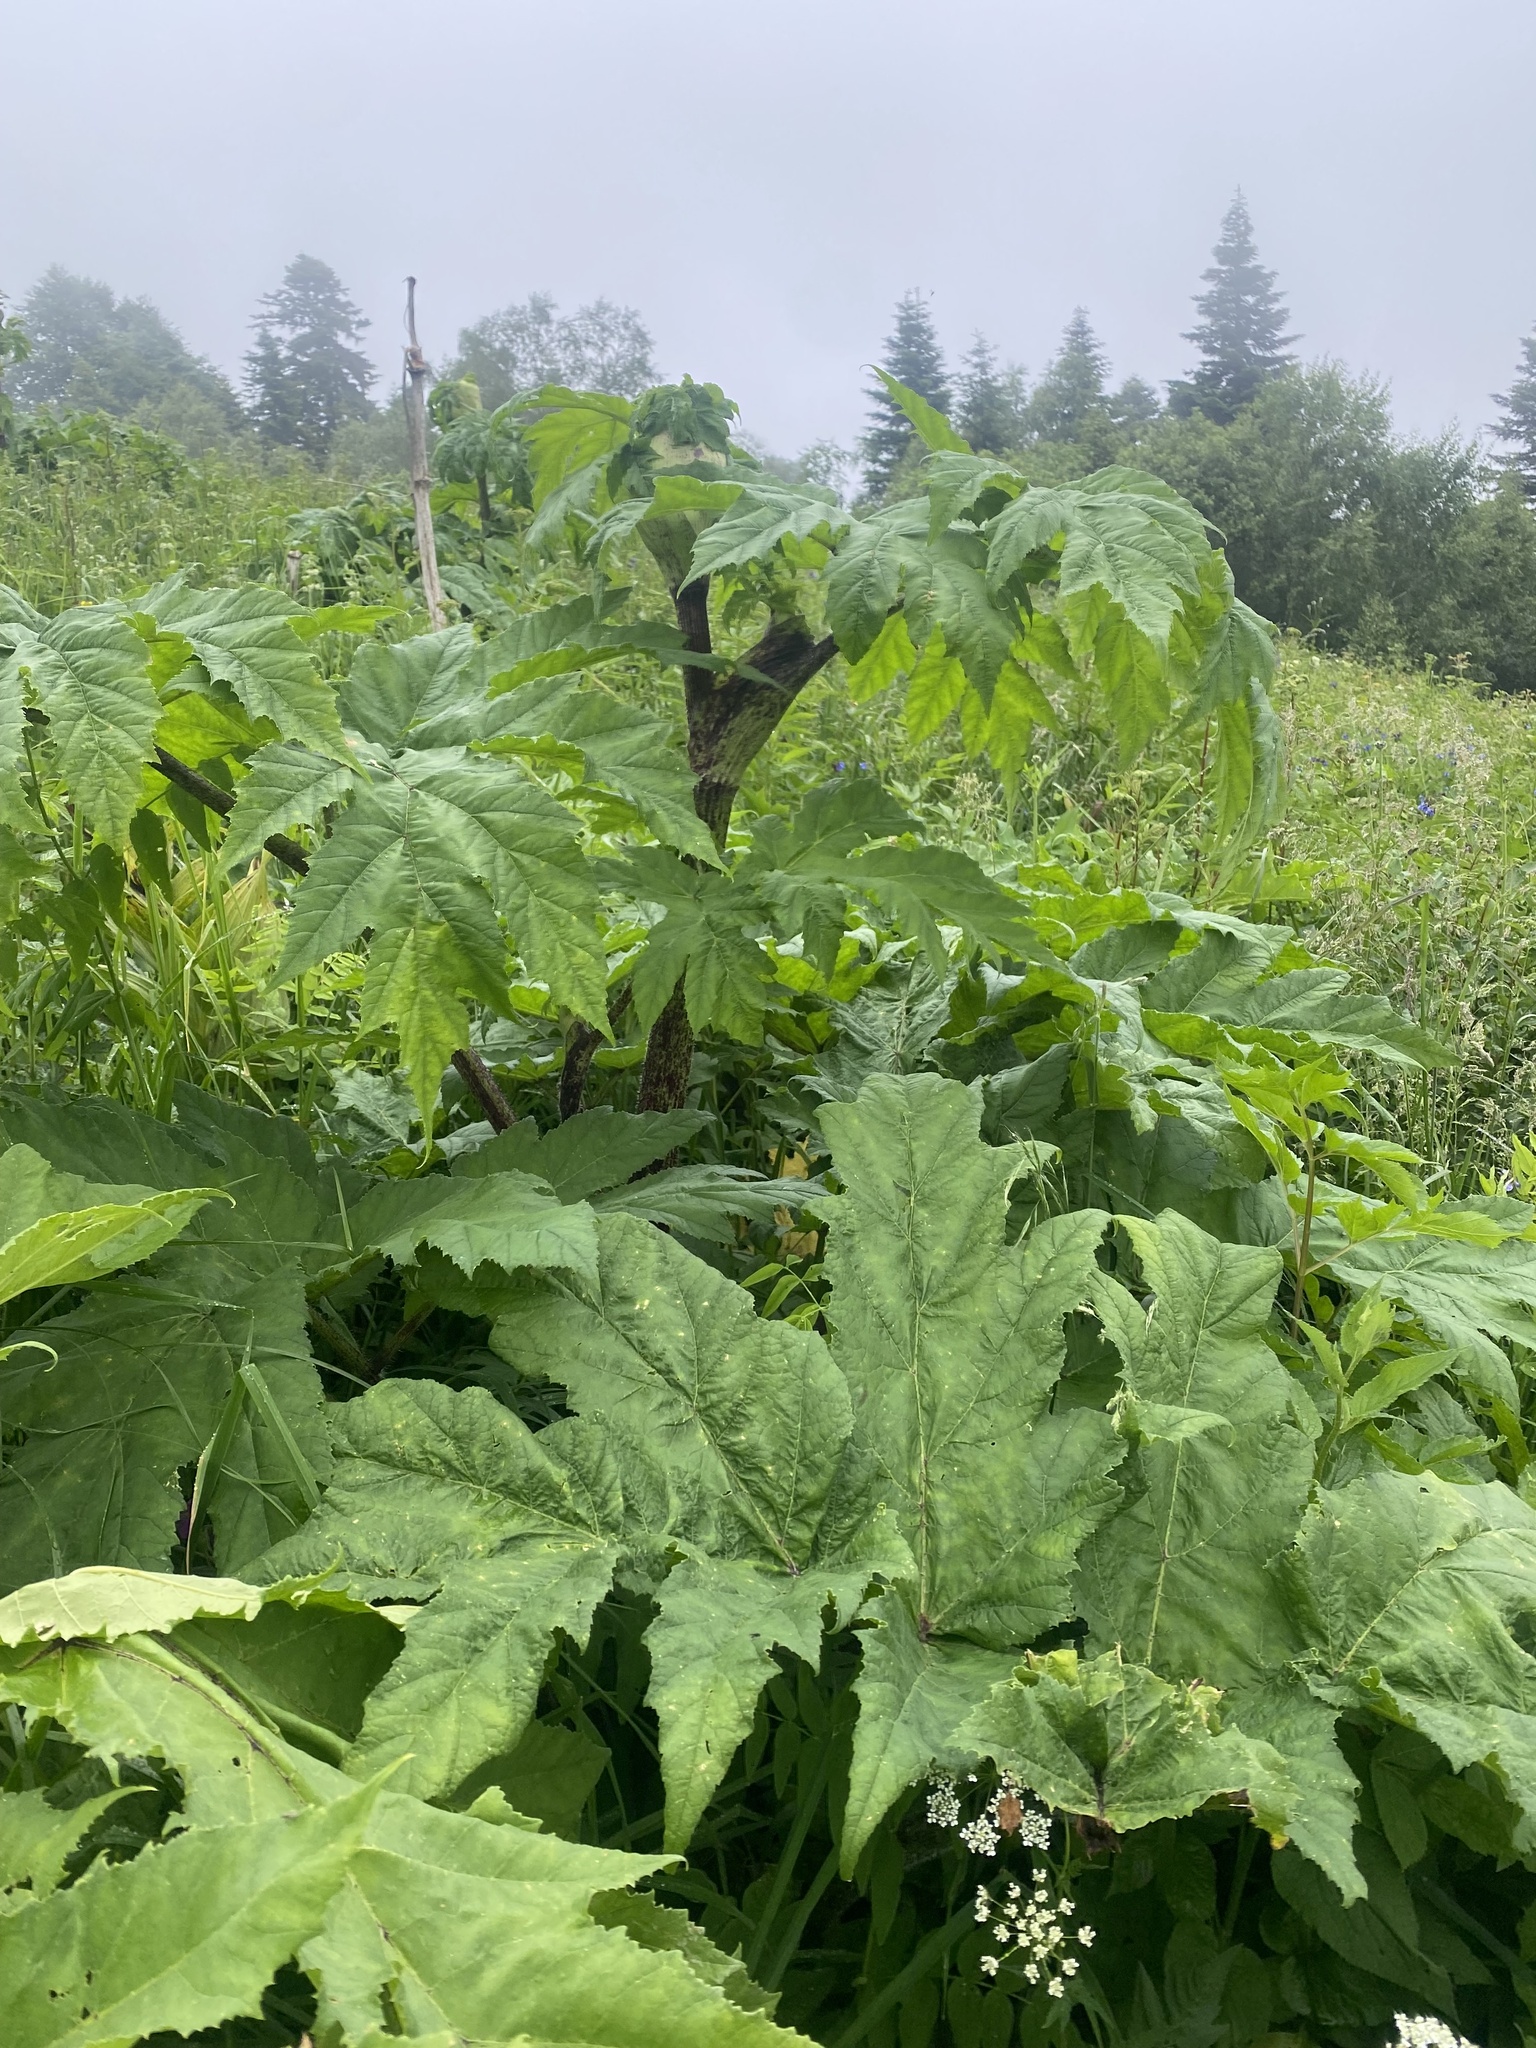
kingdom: Plantae
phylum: Tracheophyta
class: Magnoliopsida
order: Apiales
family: Apiaceae
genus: Heracleum
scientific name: Heracleum mantegazzianum
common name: Giant hogweed
